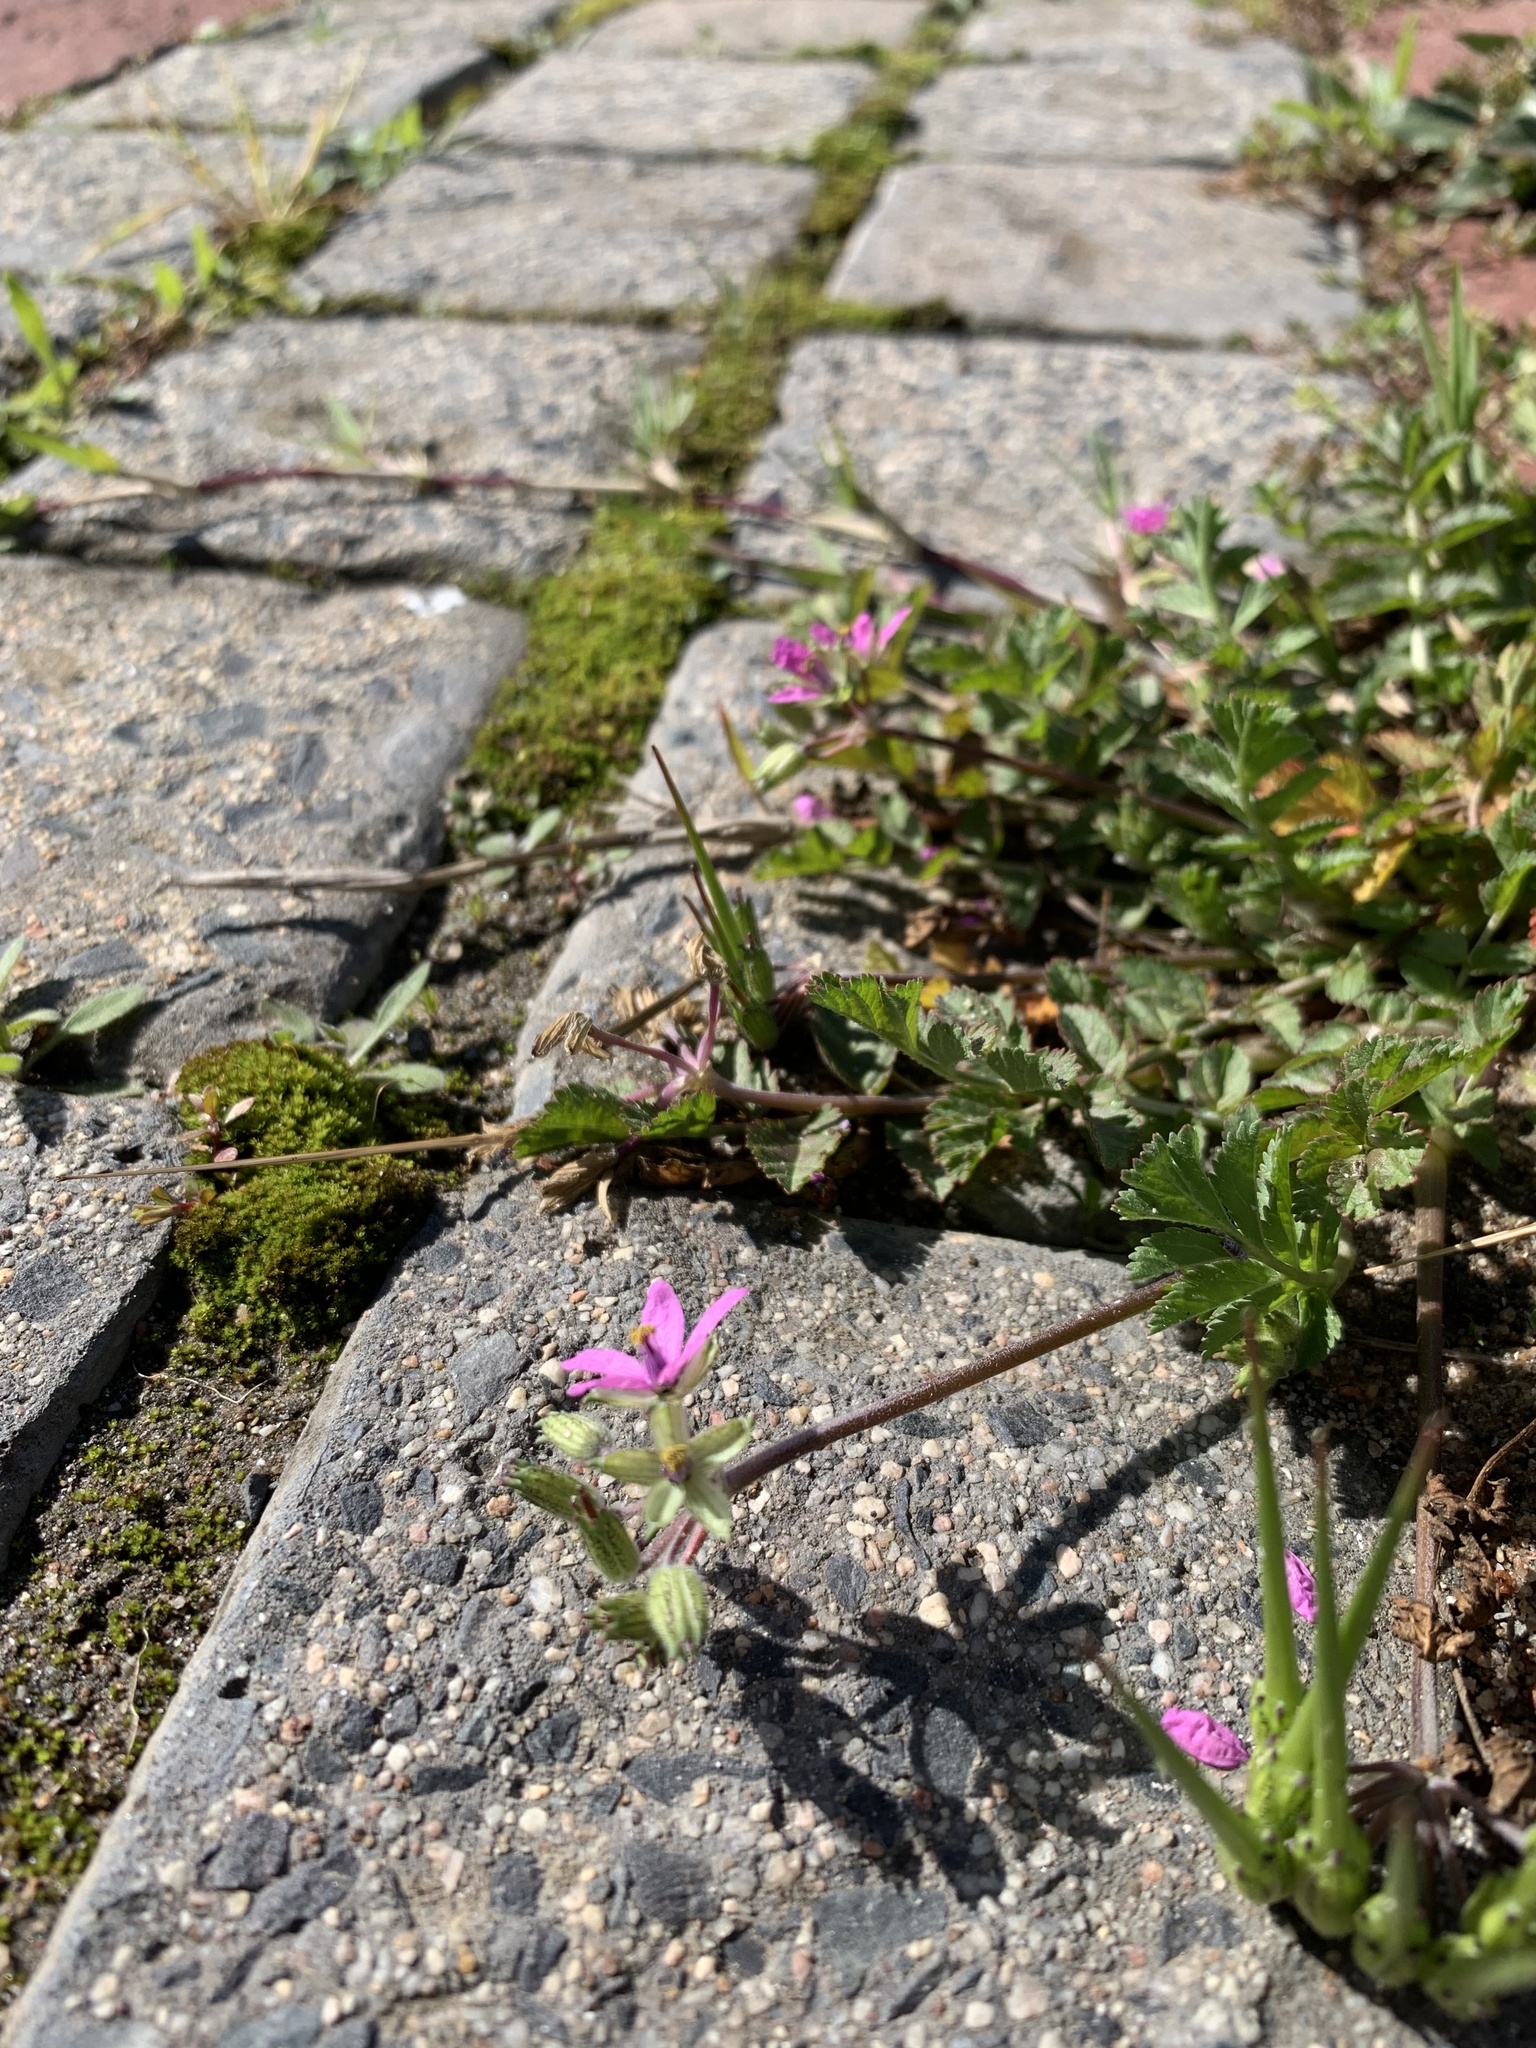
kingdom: Plantae
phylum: Tracheophyta
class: Magnoliopsida
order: Geraniales
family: Geraniaceae
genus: Erodium
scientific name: Erodium moschatum
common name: Musk stork's-bill
